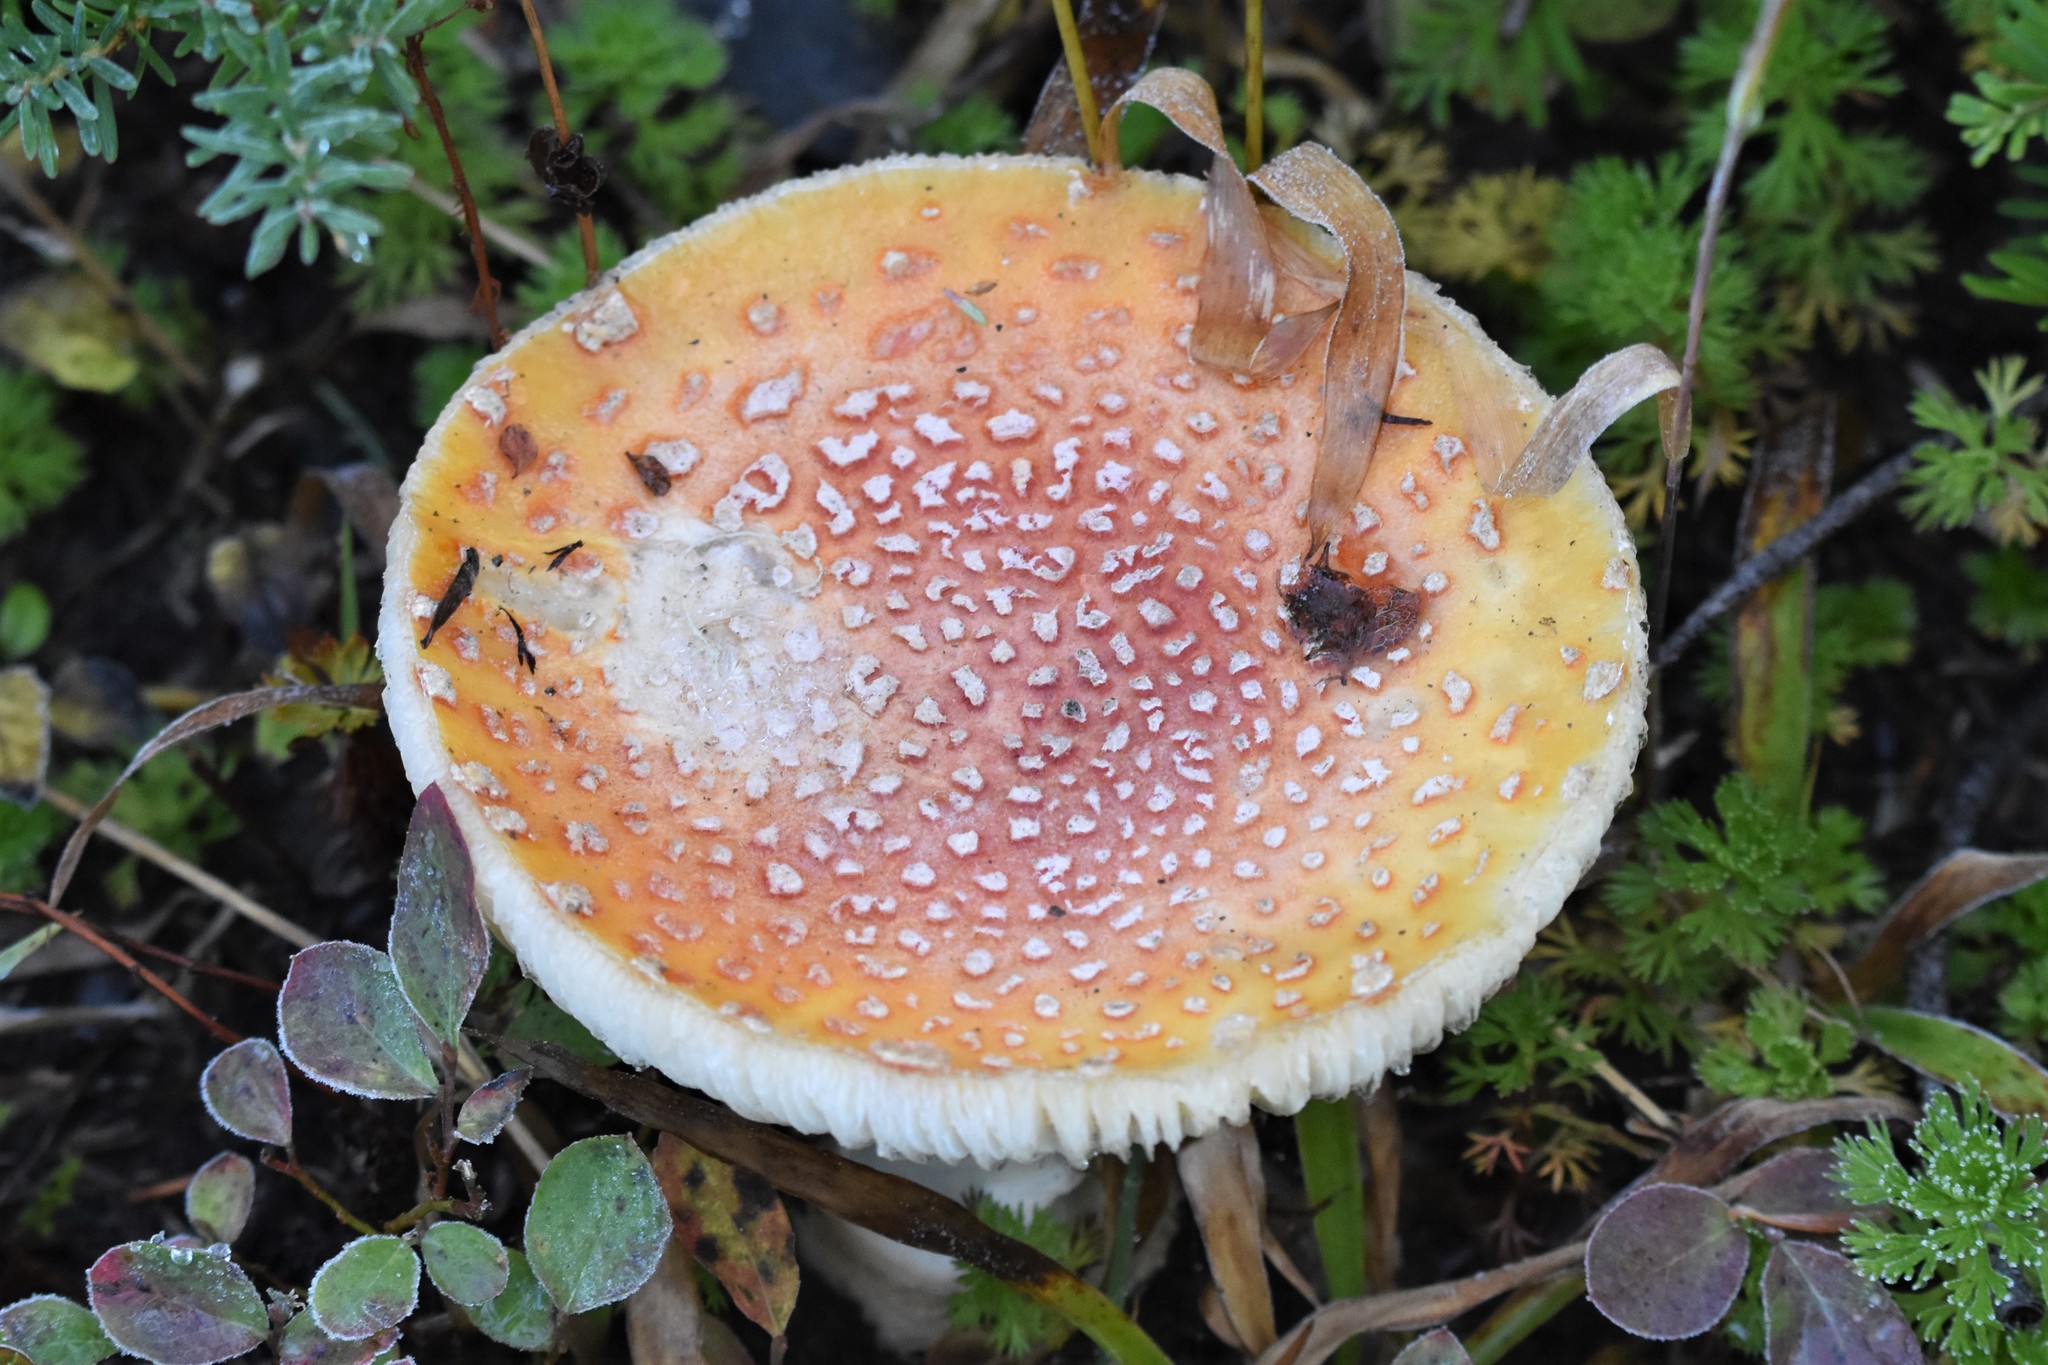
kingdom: Fungi
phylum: Basidiomycota
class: Agaricomycetes
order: Agaricales
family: Amanitaceae
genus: Amanita
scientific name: Amanita muscaria
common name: Fly agaric
